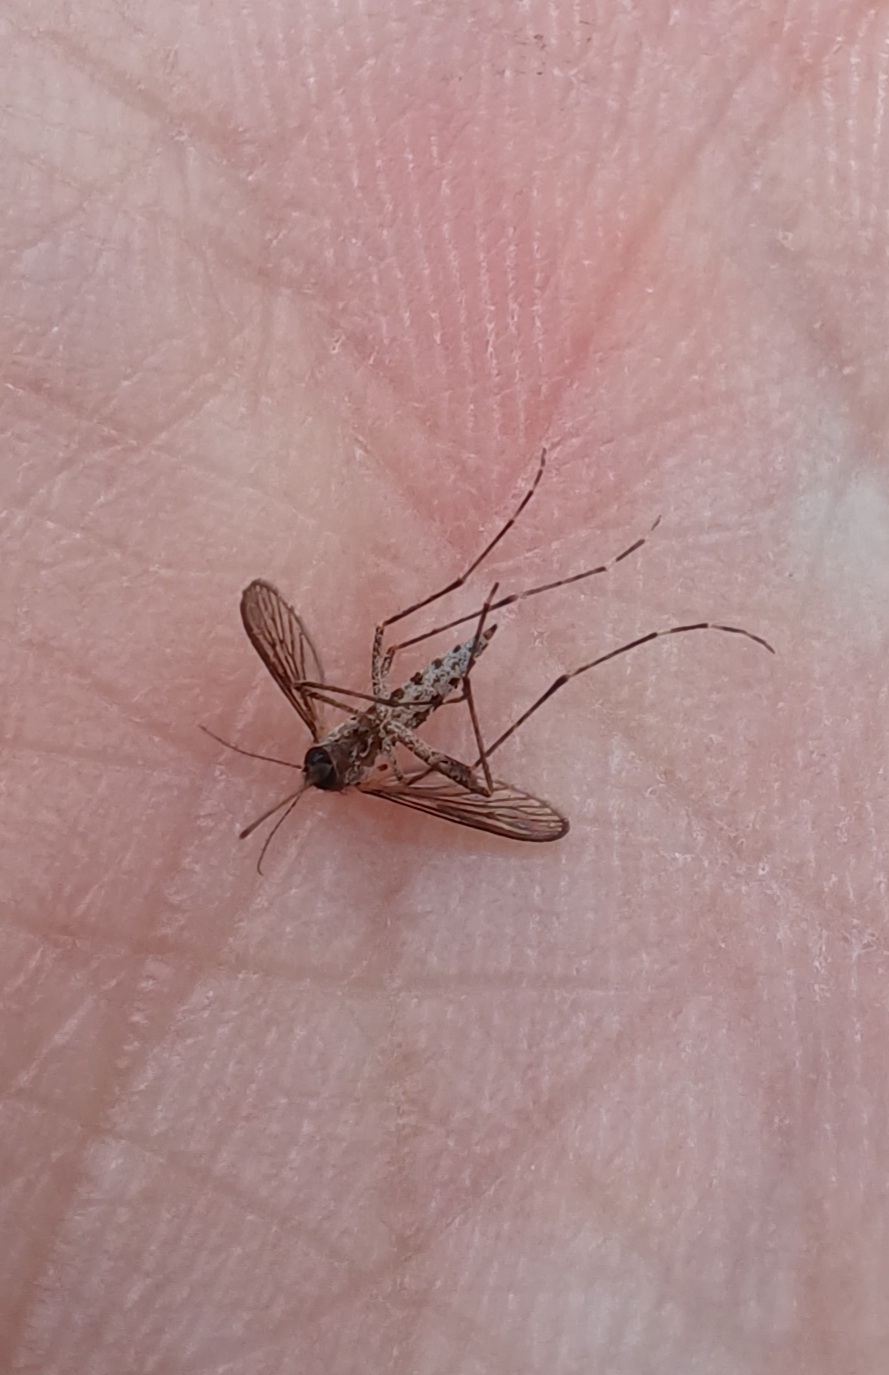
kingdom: Animalia
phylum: Arthropoda
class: Insecta
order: Diptera
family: Culicidae
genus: Aedes
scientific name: Aedes camptorhynchus
